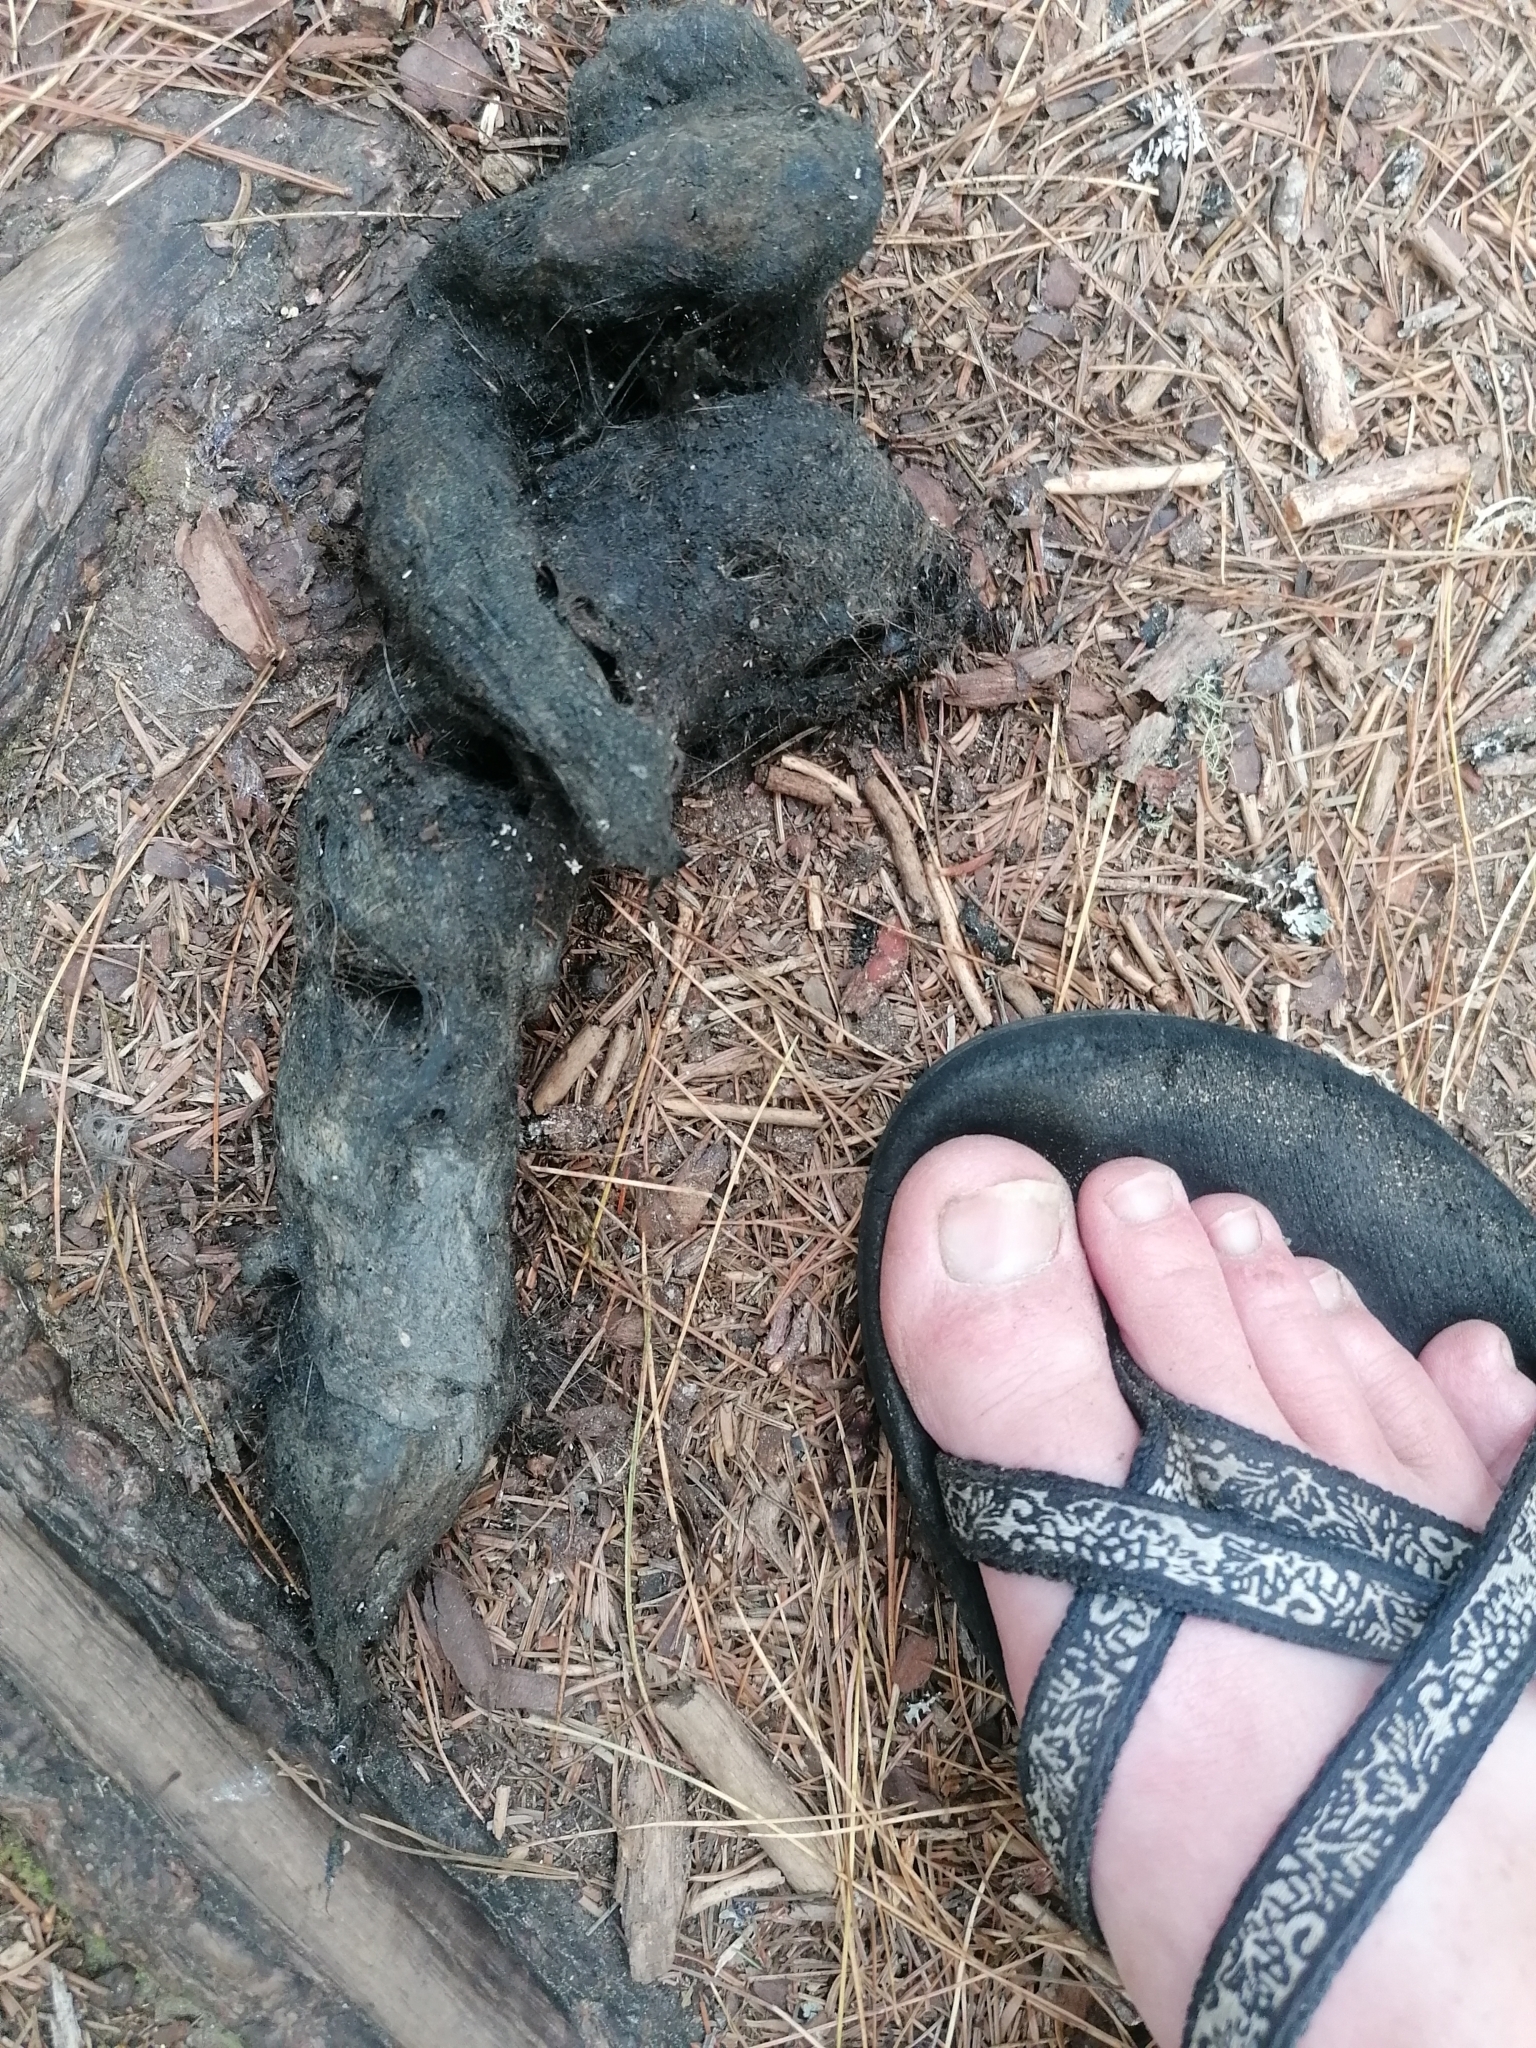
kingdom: Animalia
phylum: Chordata
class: Mammalia
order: Carnivora
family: Canidae
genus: Canis
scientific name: Canis lycaon
